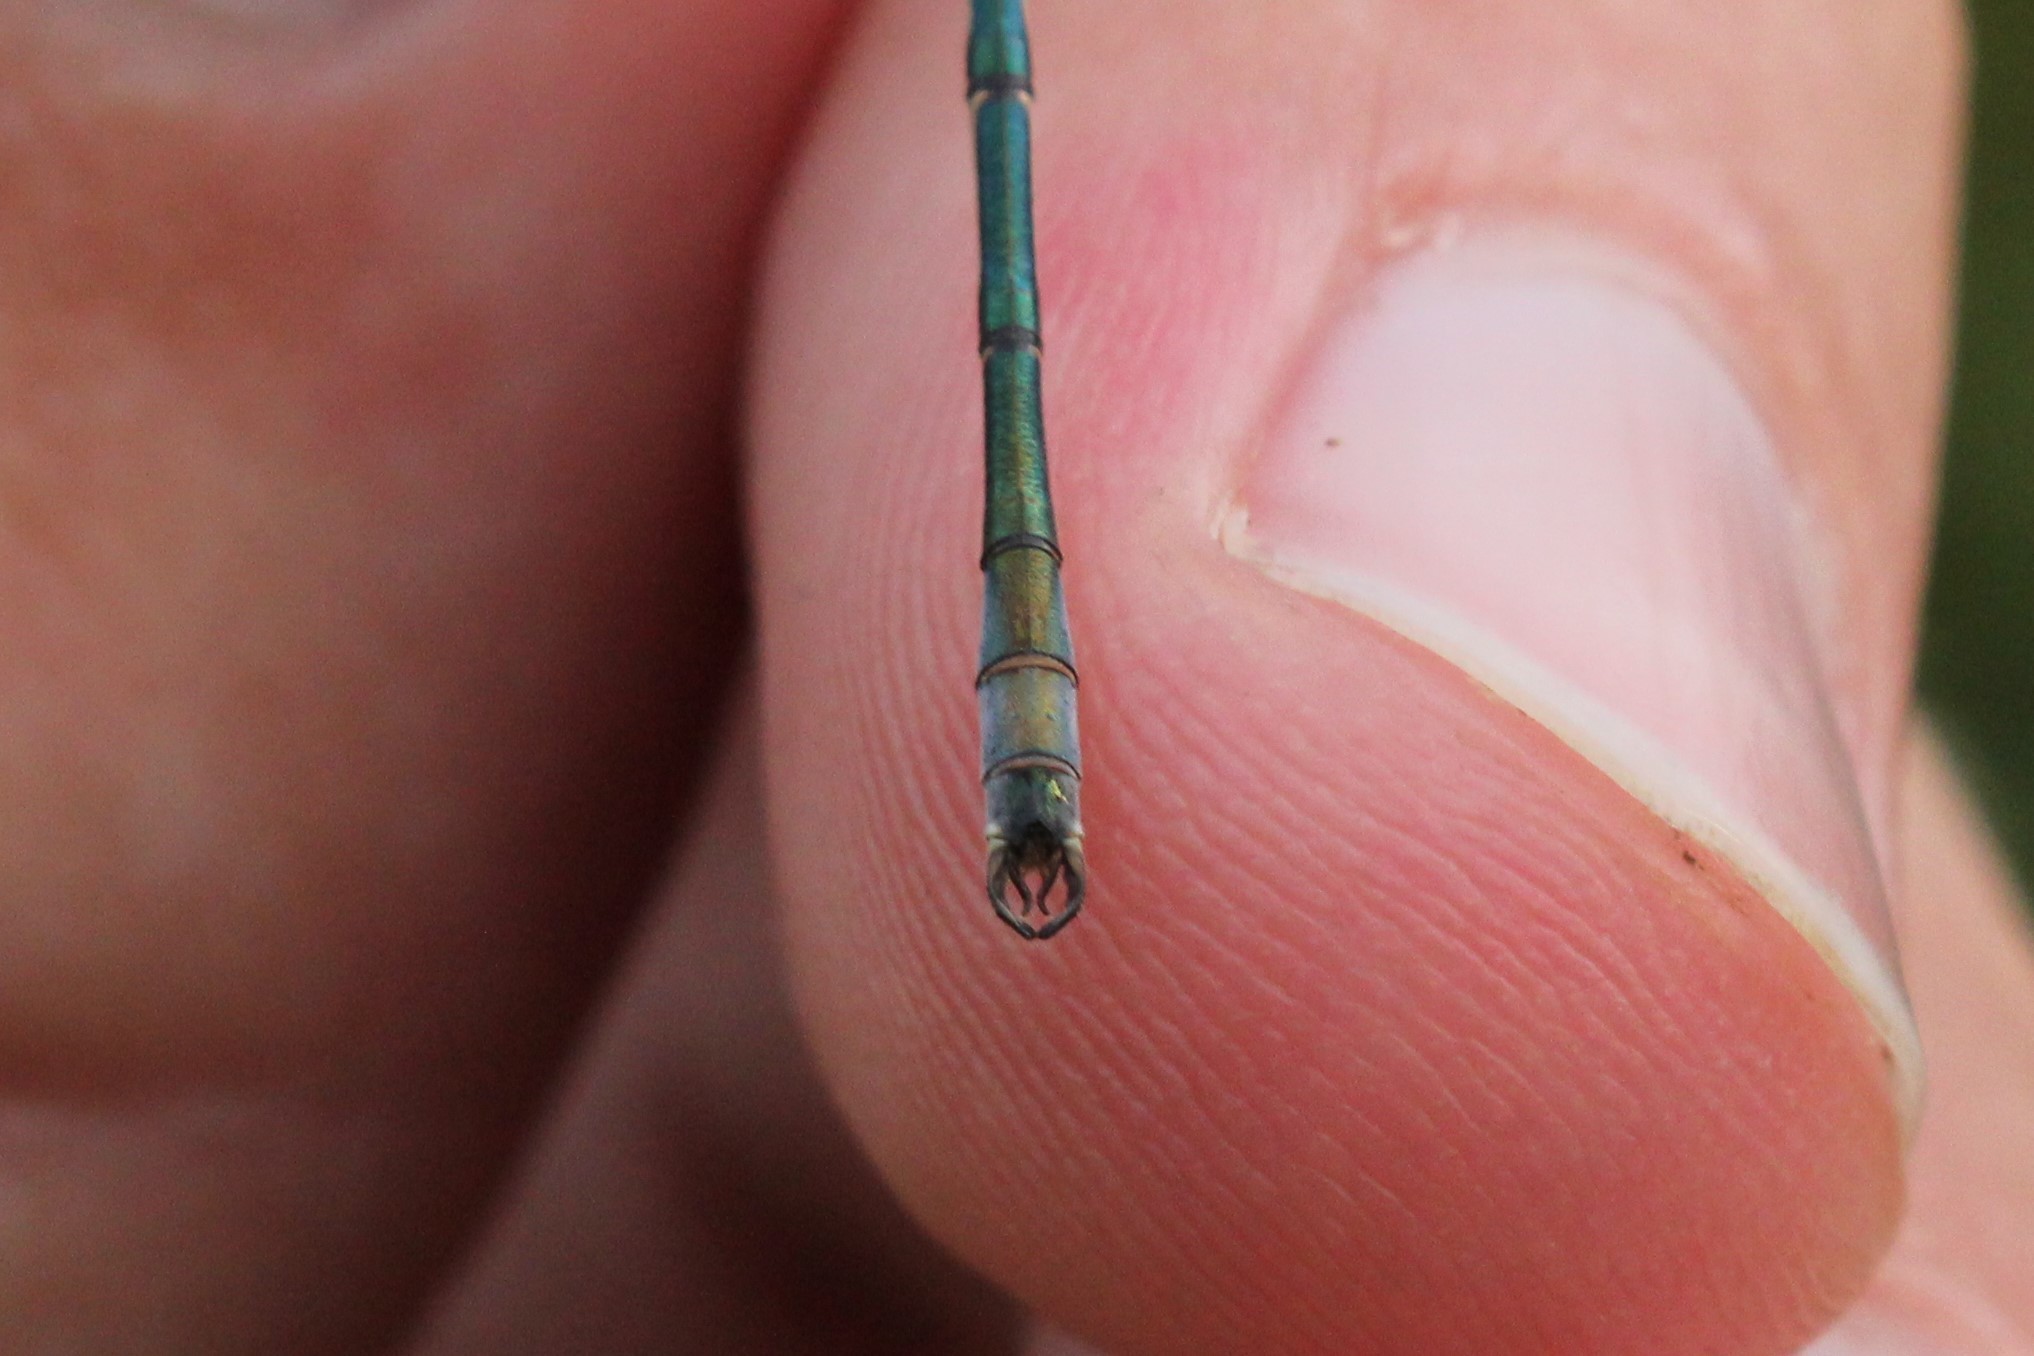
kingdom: Animalia
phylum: Arthropoda
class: Insecta
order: Odonata
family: Lestidae
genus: Lestes
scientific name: Lestes unguiculatus
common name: Lyre-tipped spreadwing
